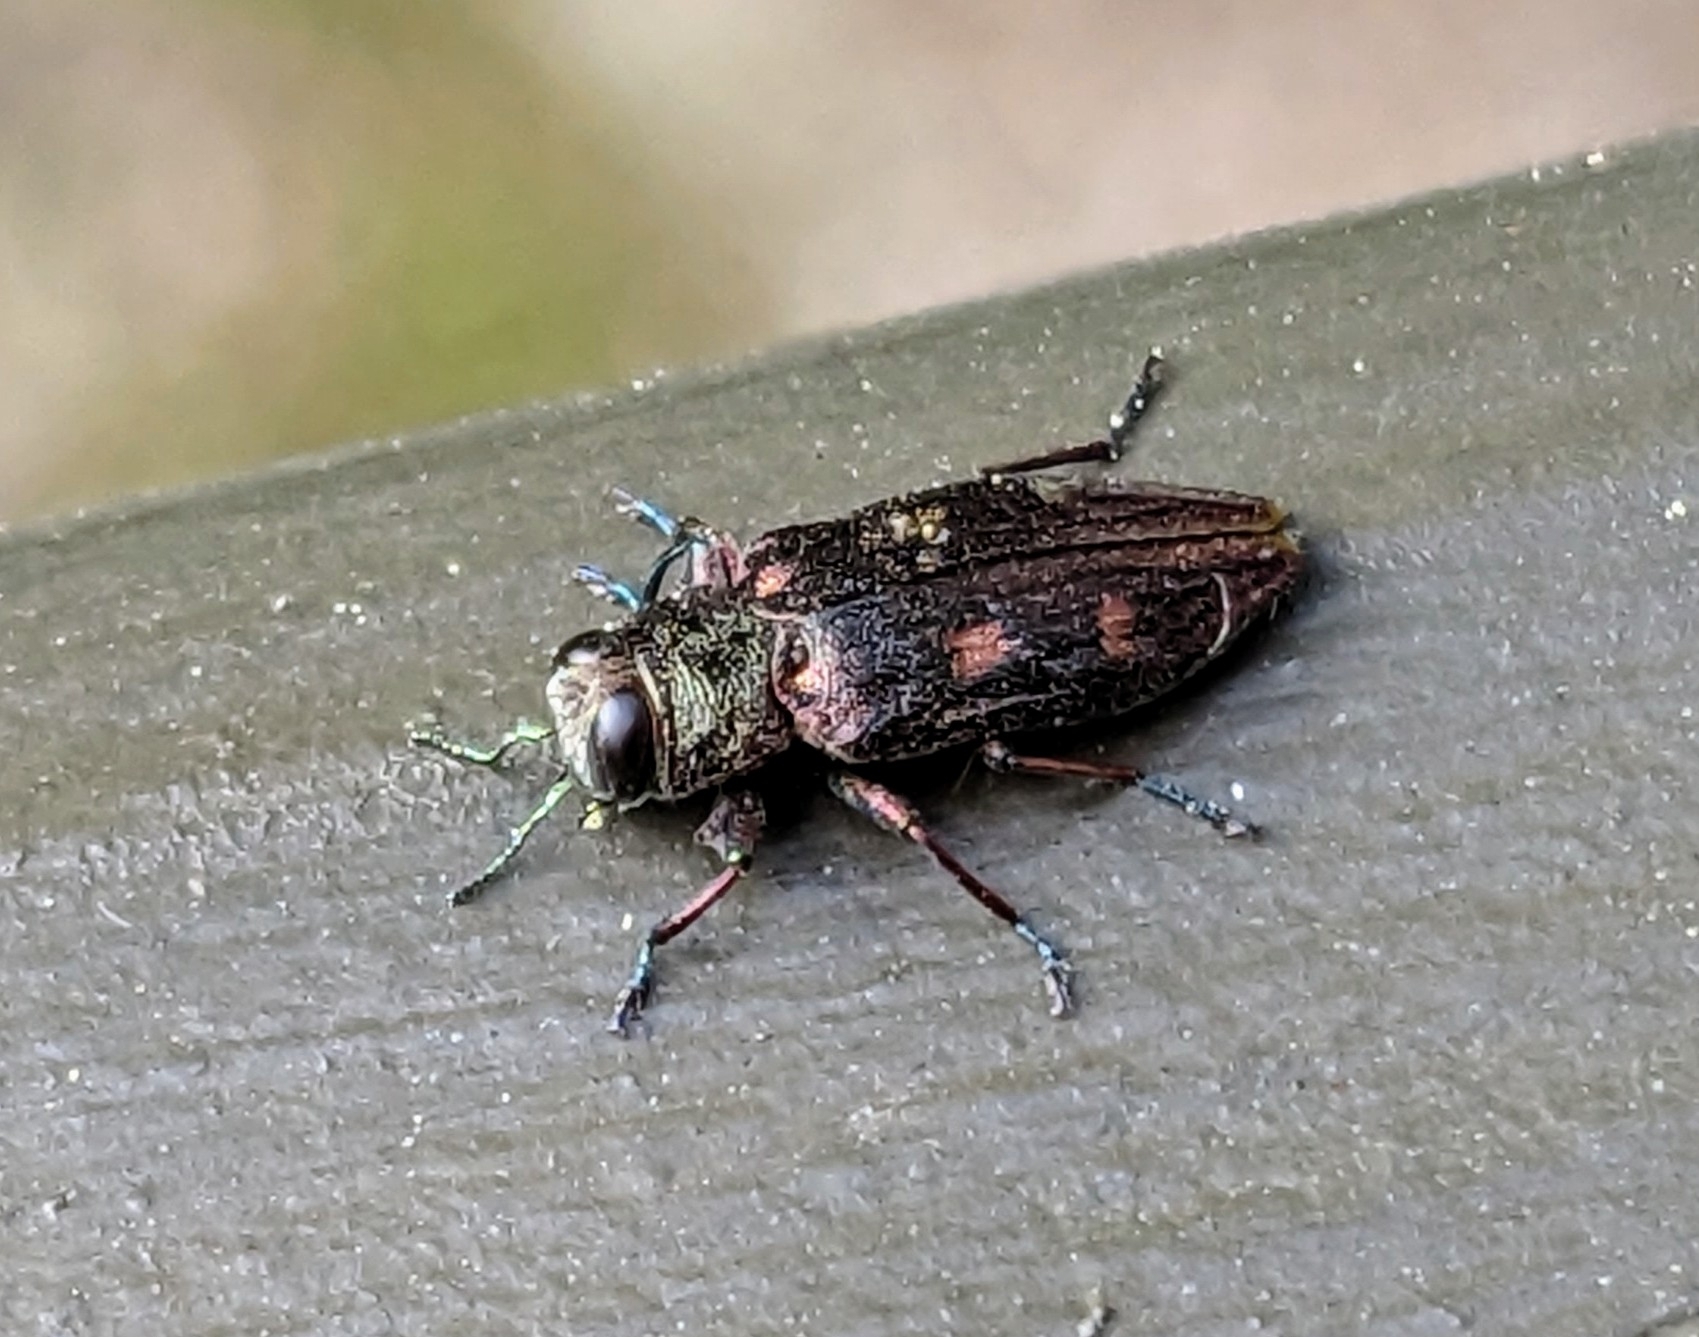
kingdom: Animalia
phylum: Arthropoda
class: Insecta
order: Coleoptera
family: Buprestidae
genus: Chrysobothris
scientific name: Chrysobothris sexsignata
